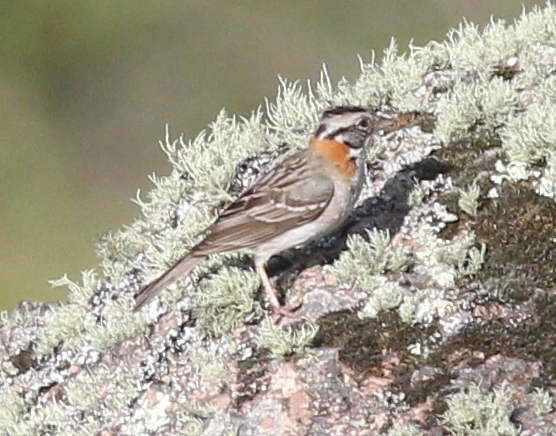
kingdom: Animalia
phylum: Chordata
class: Aves
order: Passeriformes
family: Passerellidae
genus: Zonotrichia
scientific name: Zonotrichia capensis
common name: Rufous-collared sparrow
